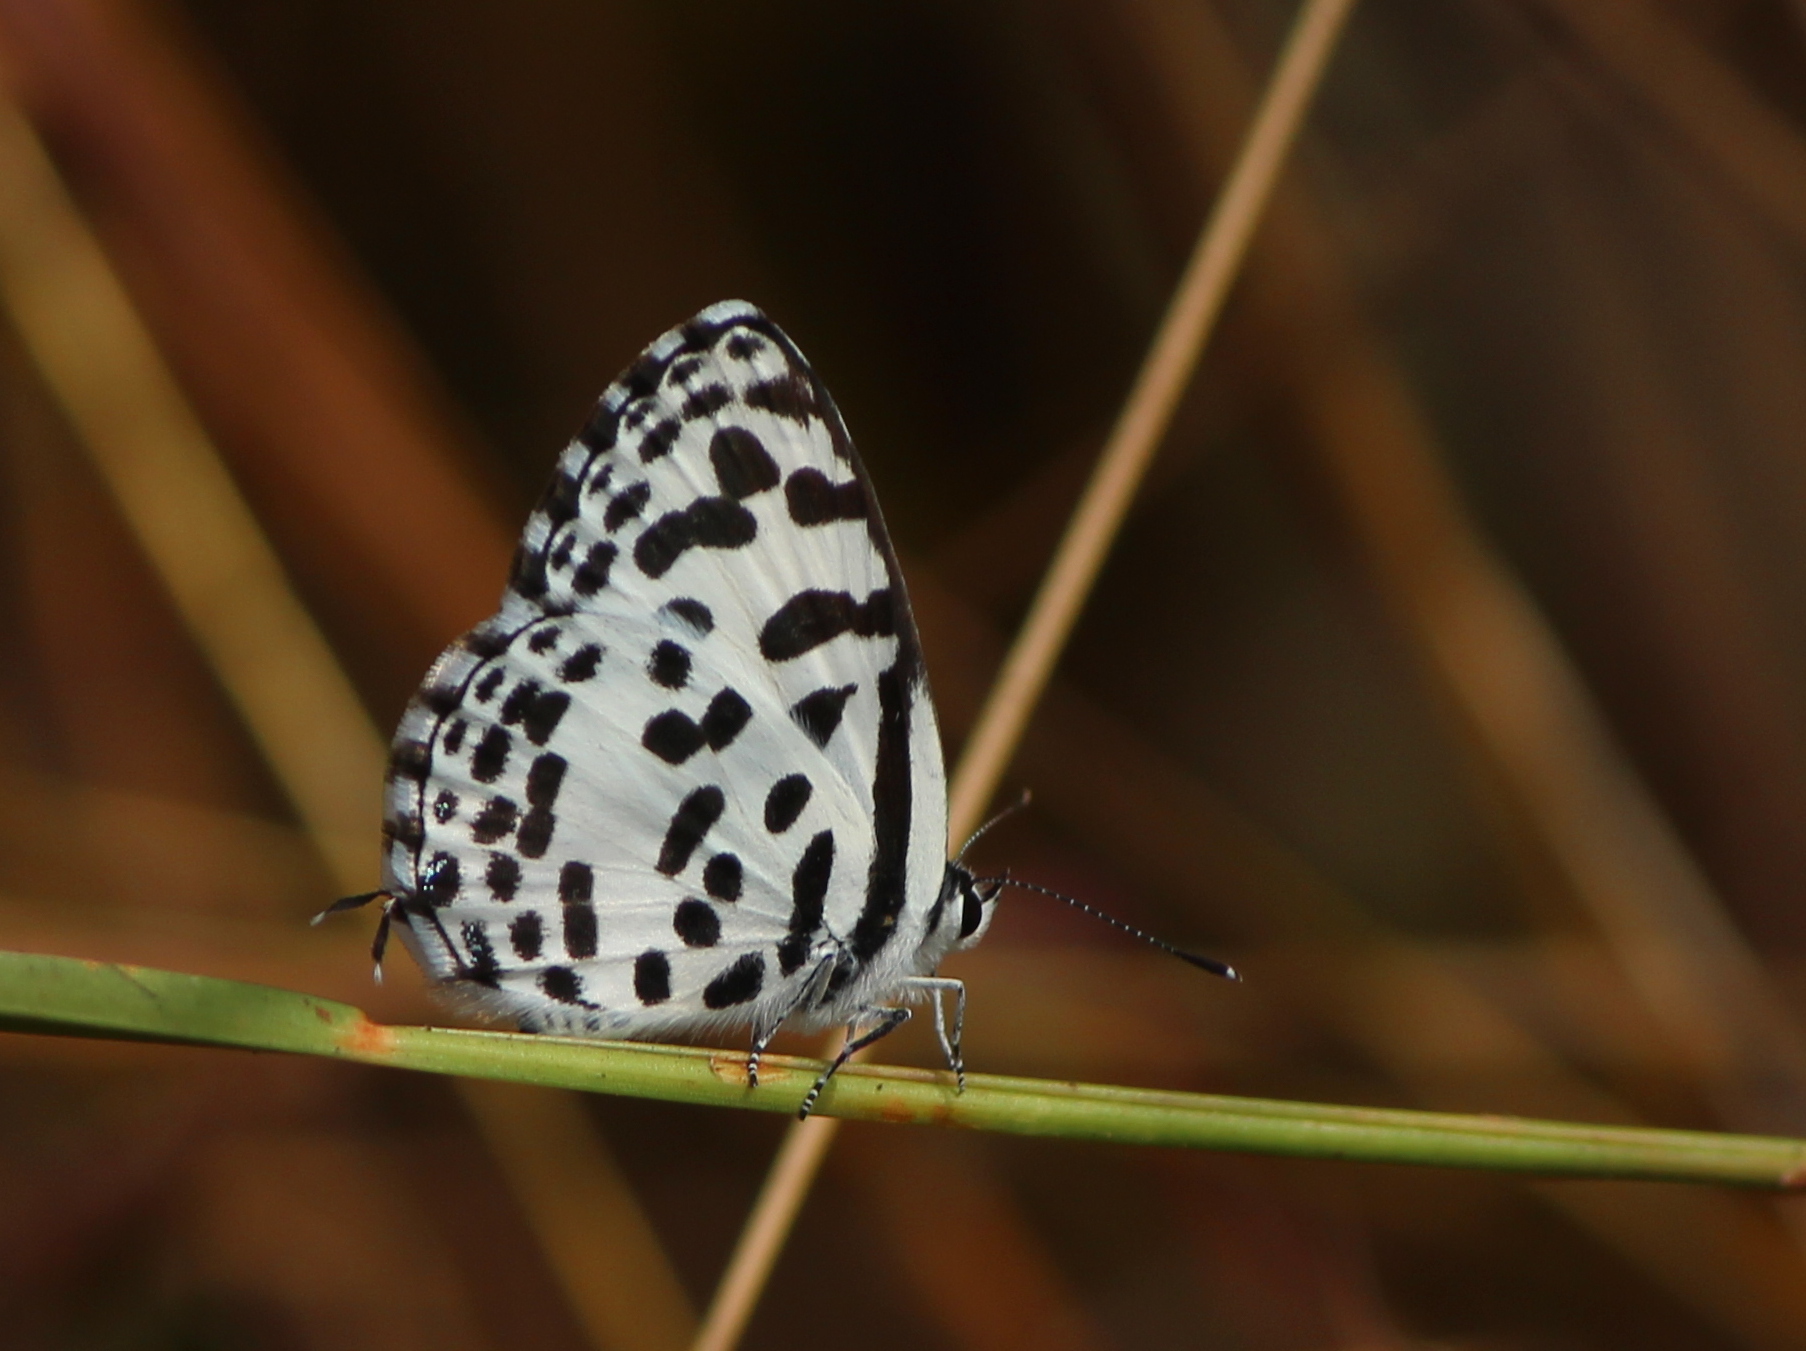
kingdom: Animalia
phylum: Arthropoda
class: Insecta
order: Lepidoptera
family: Lycaenidae
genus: Castalius
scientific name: Castalius rosimon
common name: Common pierrot
